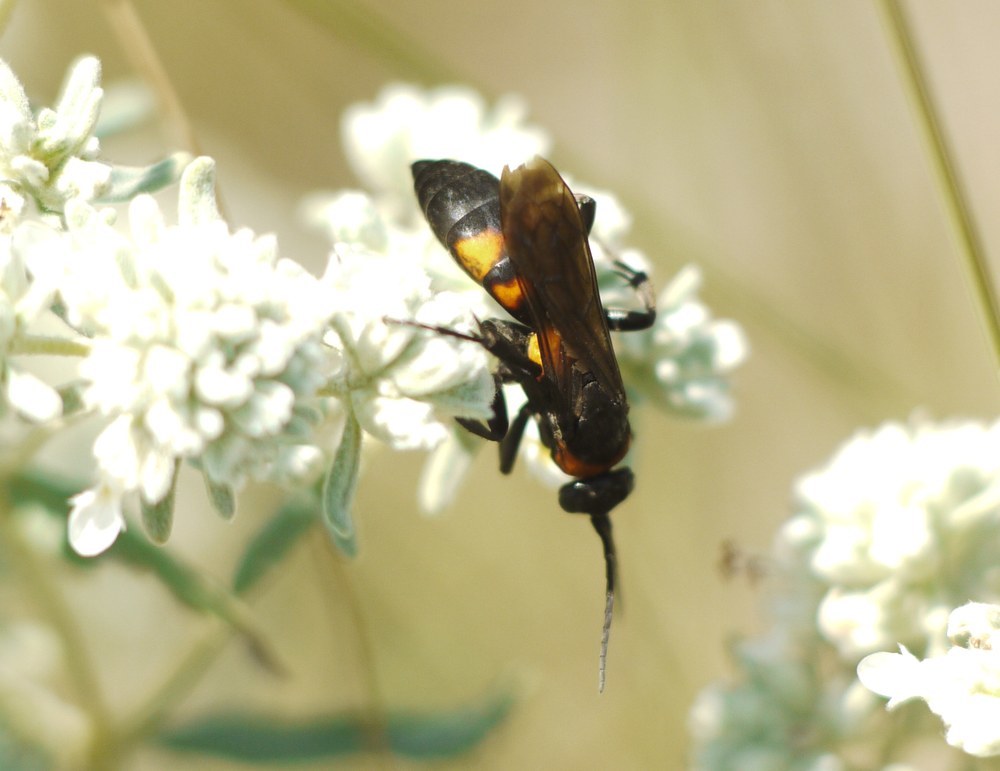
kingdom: Animalia
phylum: Arthropoda
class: Insecta
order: Hymenoptera
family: Pompilidae
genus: Eoferreola
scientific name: Eoferreola erythraea
